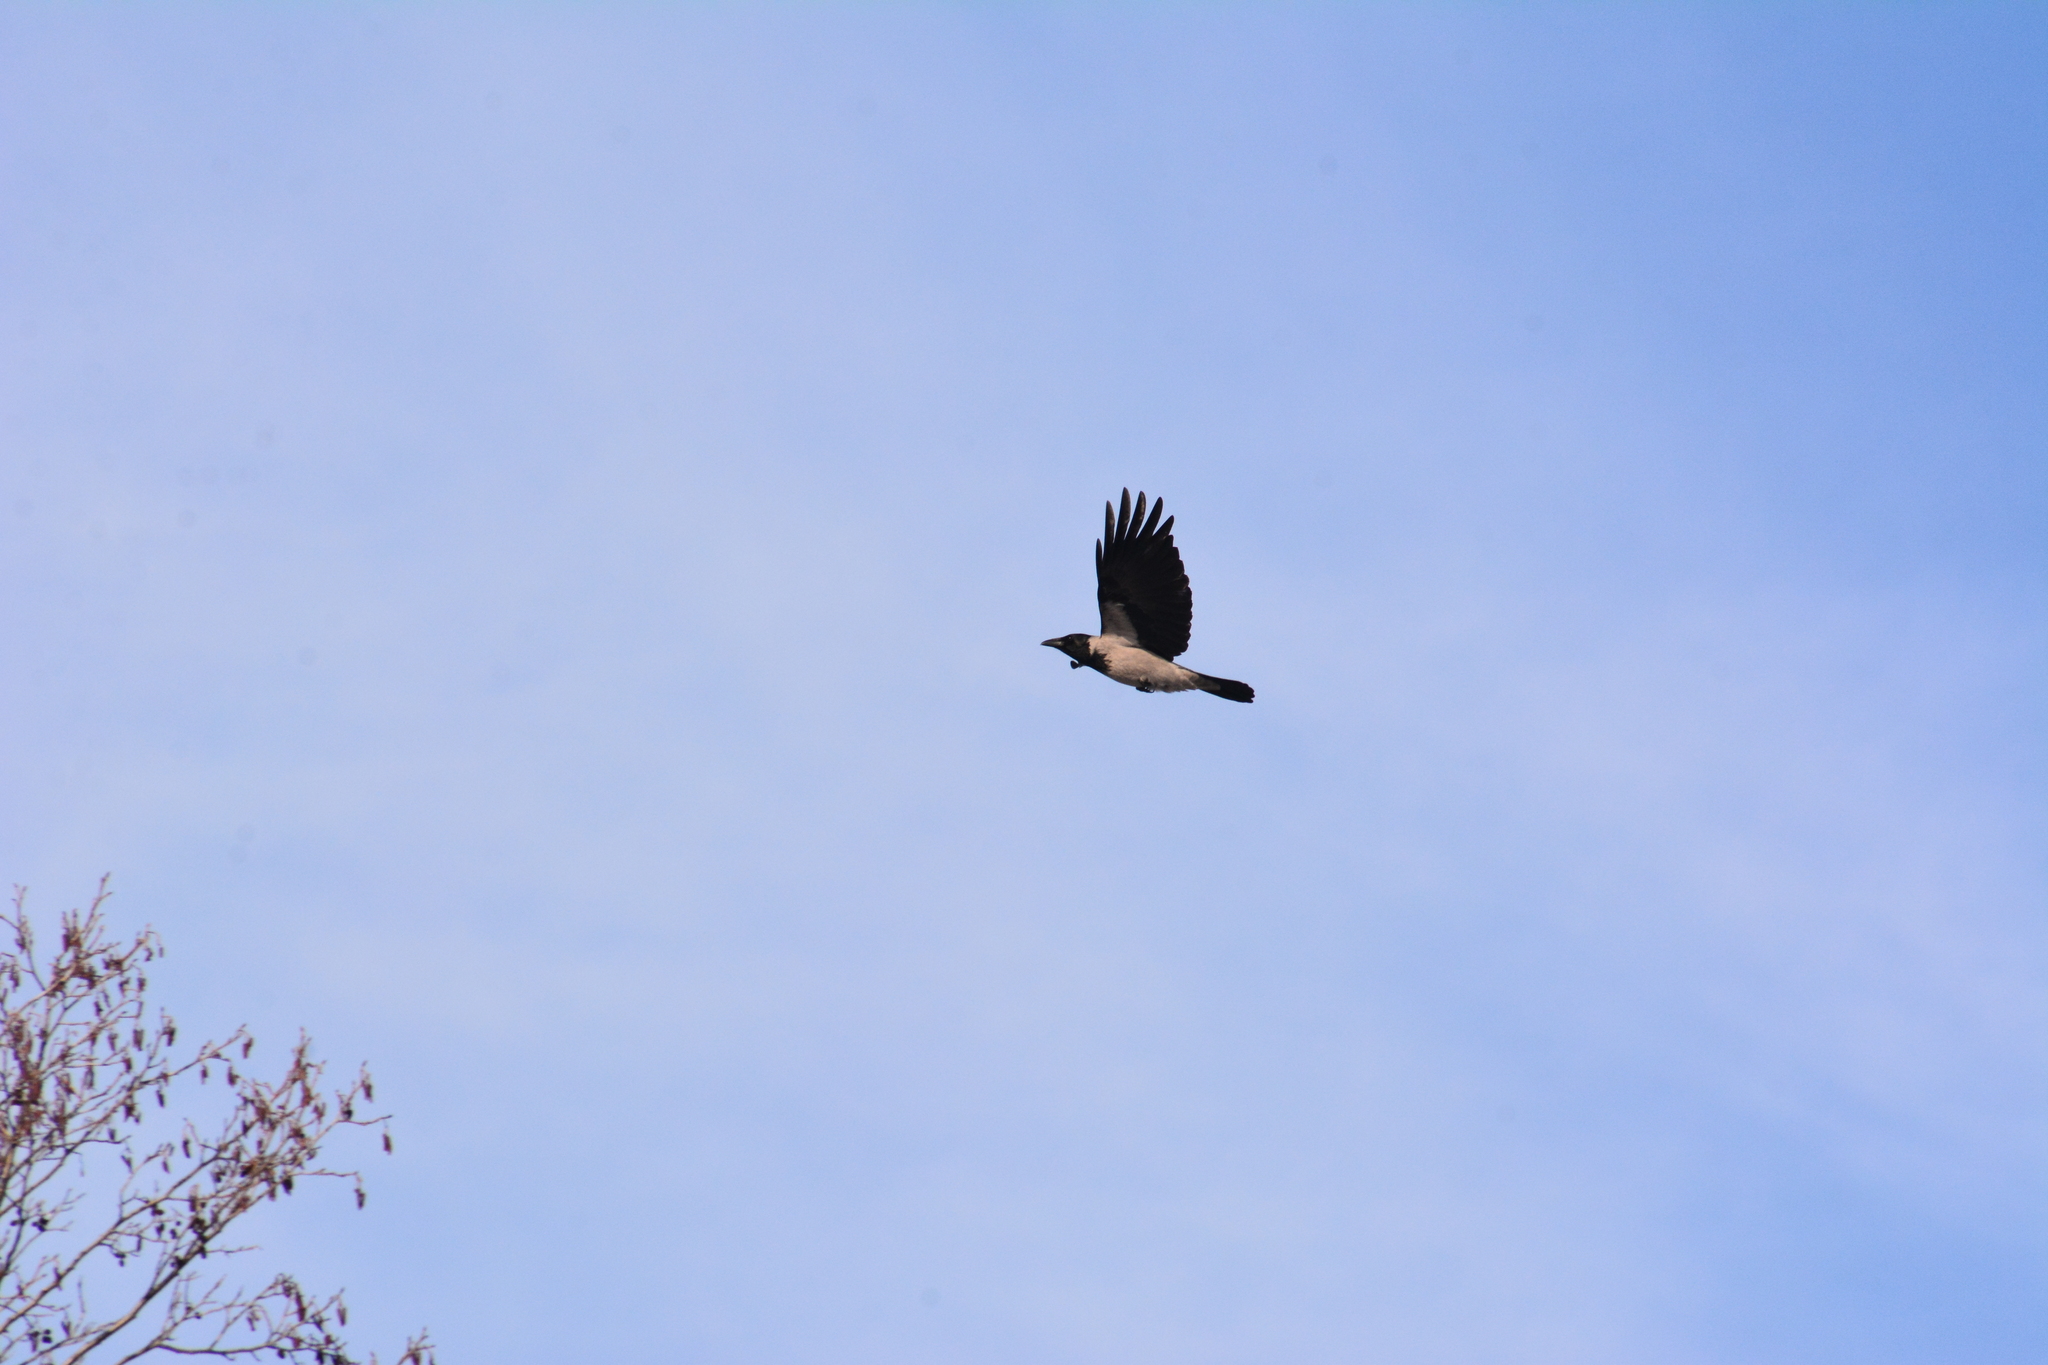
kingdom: Animalia
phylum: Chordata
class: Aves
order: Passeriformes
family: Corvidae
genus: Corvus
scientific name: Corvus cornix
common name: Hooded crow
